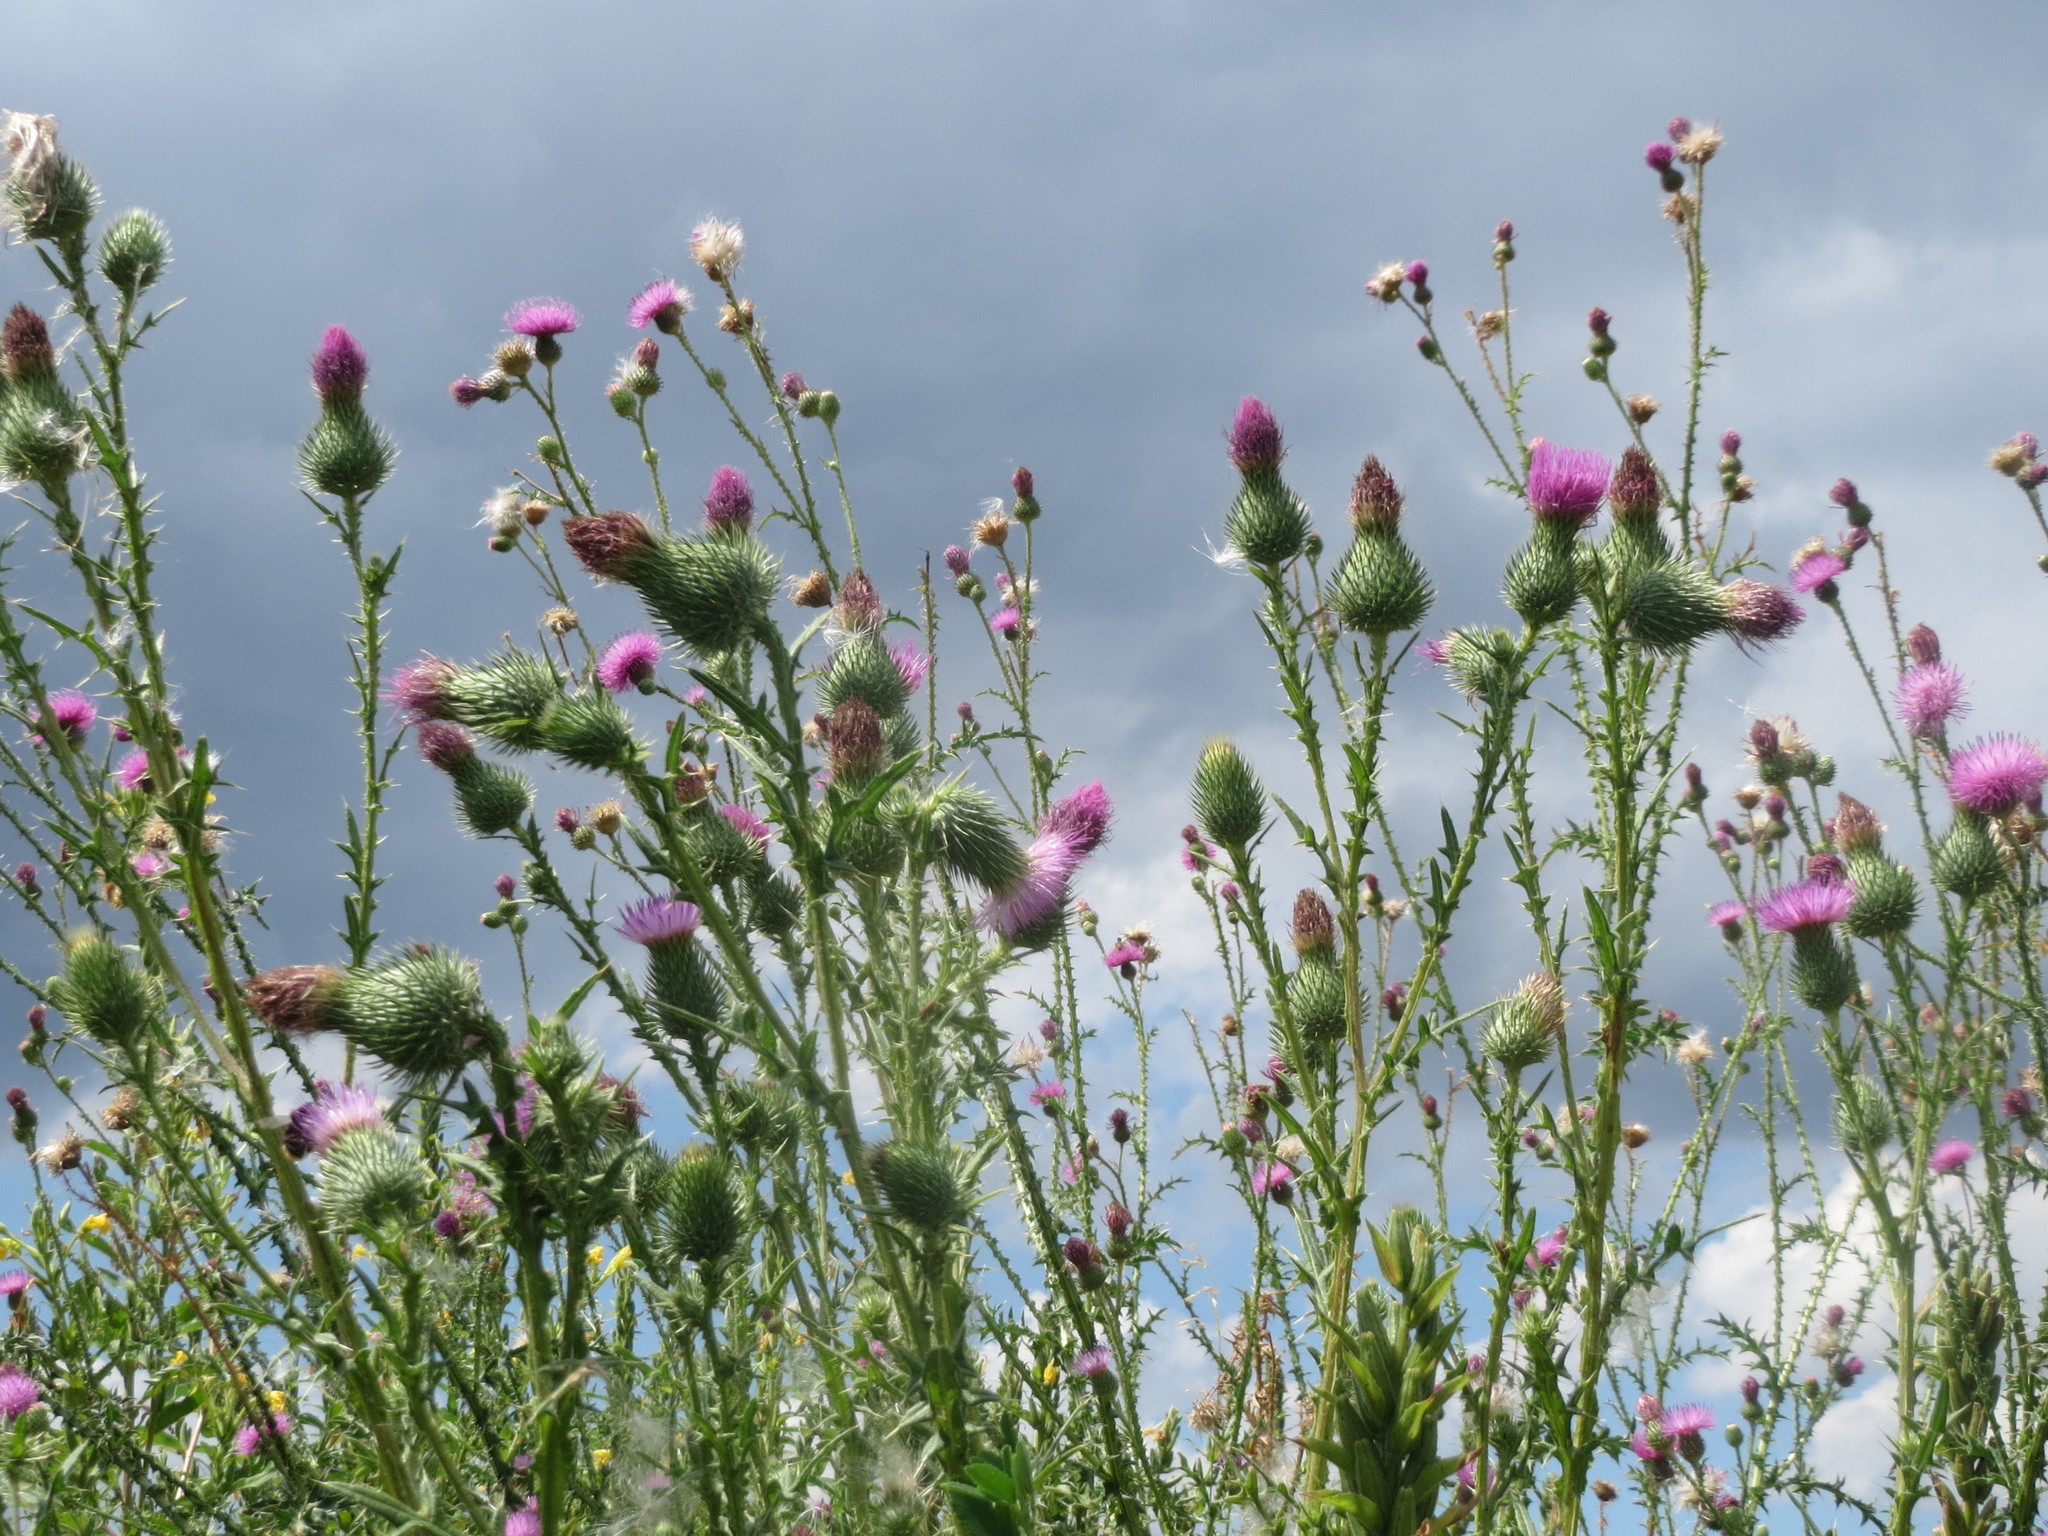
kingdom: Plantae
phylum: Tracheophyta
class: Magnoliopsida
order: Asterales
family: Asteraceae
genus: Cirsium
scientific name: Cirsium vulgare
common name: Bull thistle
